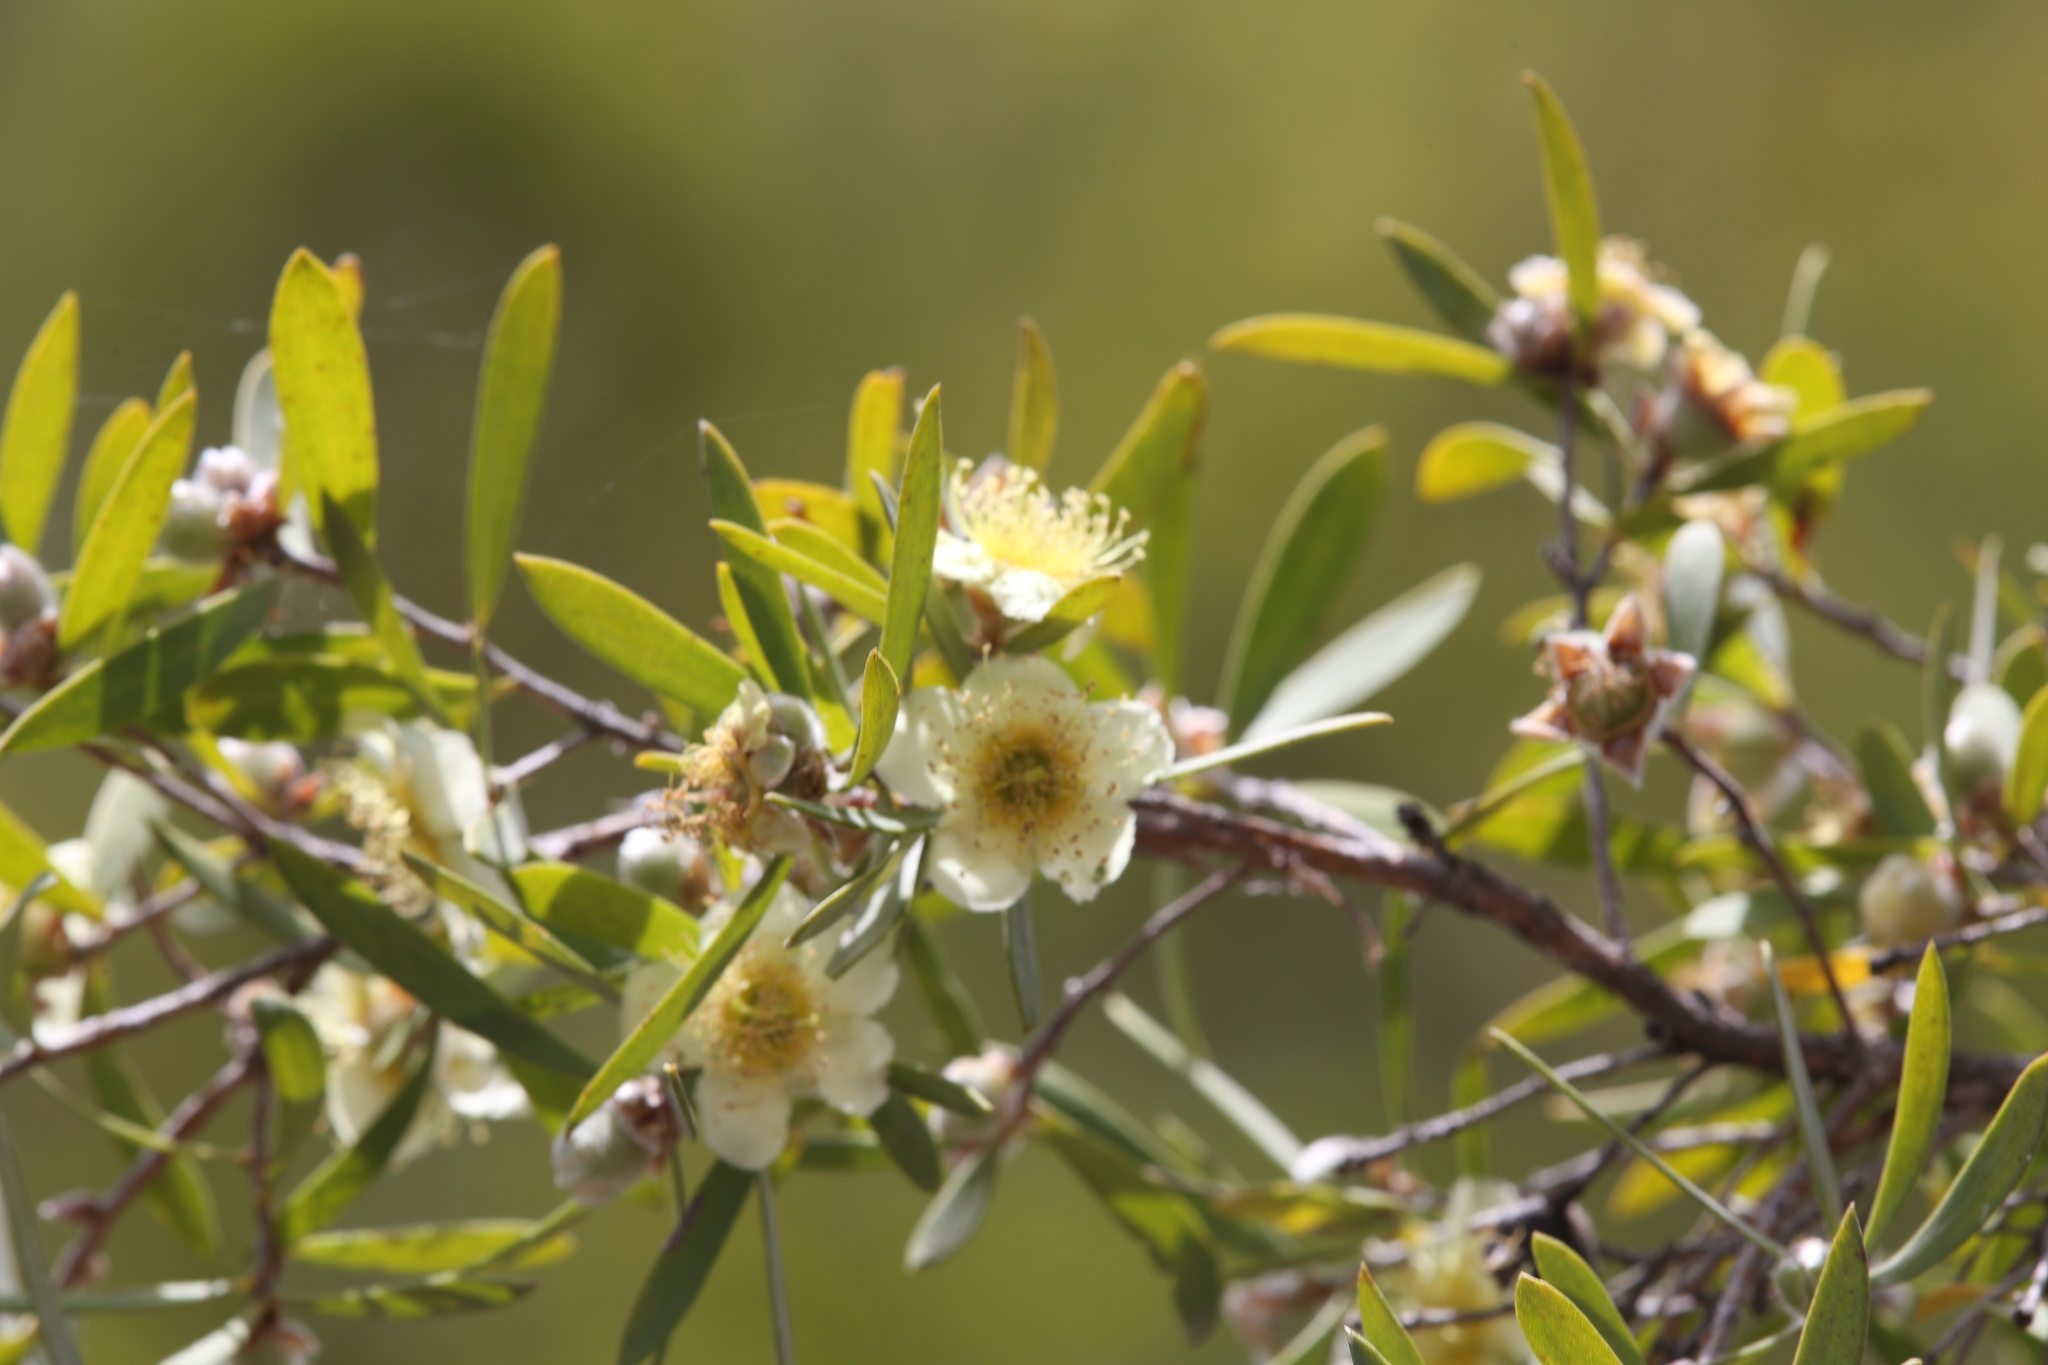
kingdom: Plantae
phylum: Tracheophyta
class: Magnoliopsida
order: Myrtales
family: Myrtaceae
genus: Neofabricia
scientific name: Neofabricia myrtifolia
